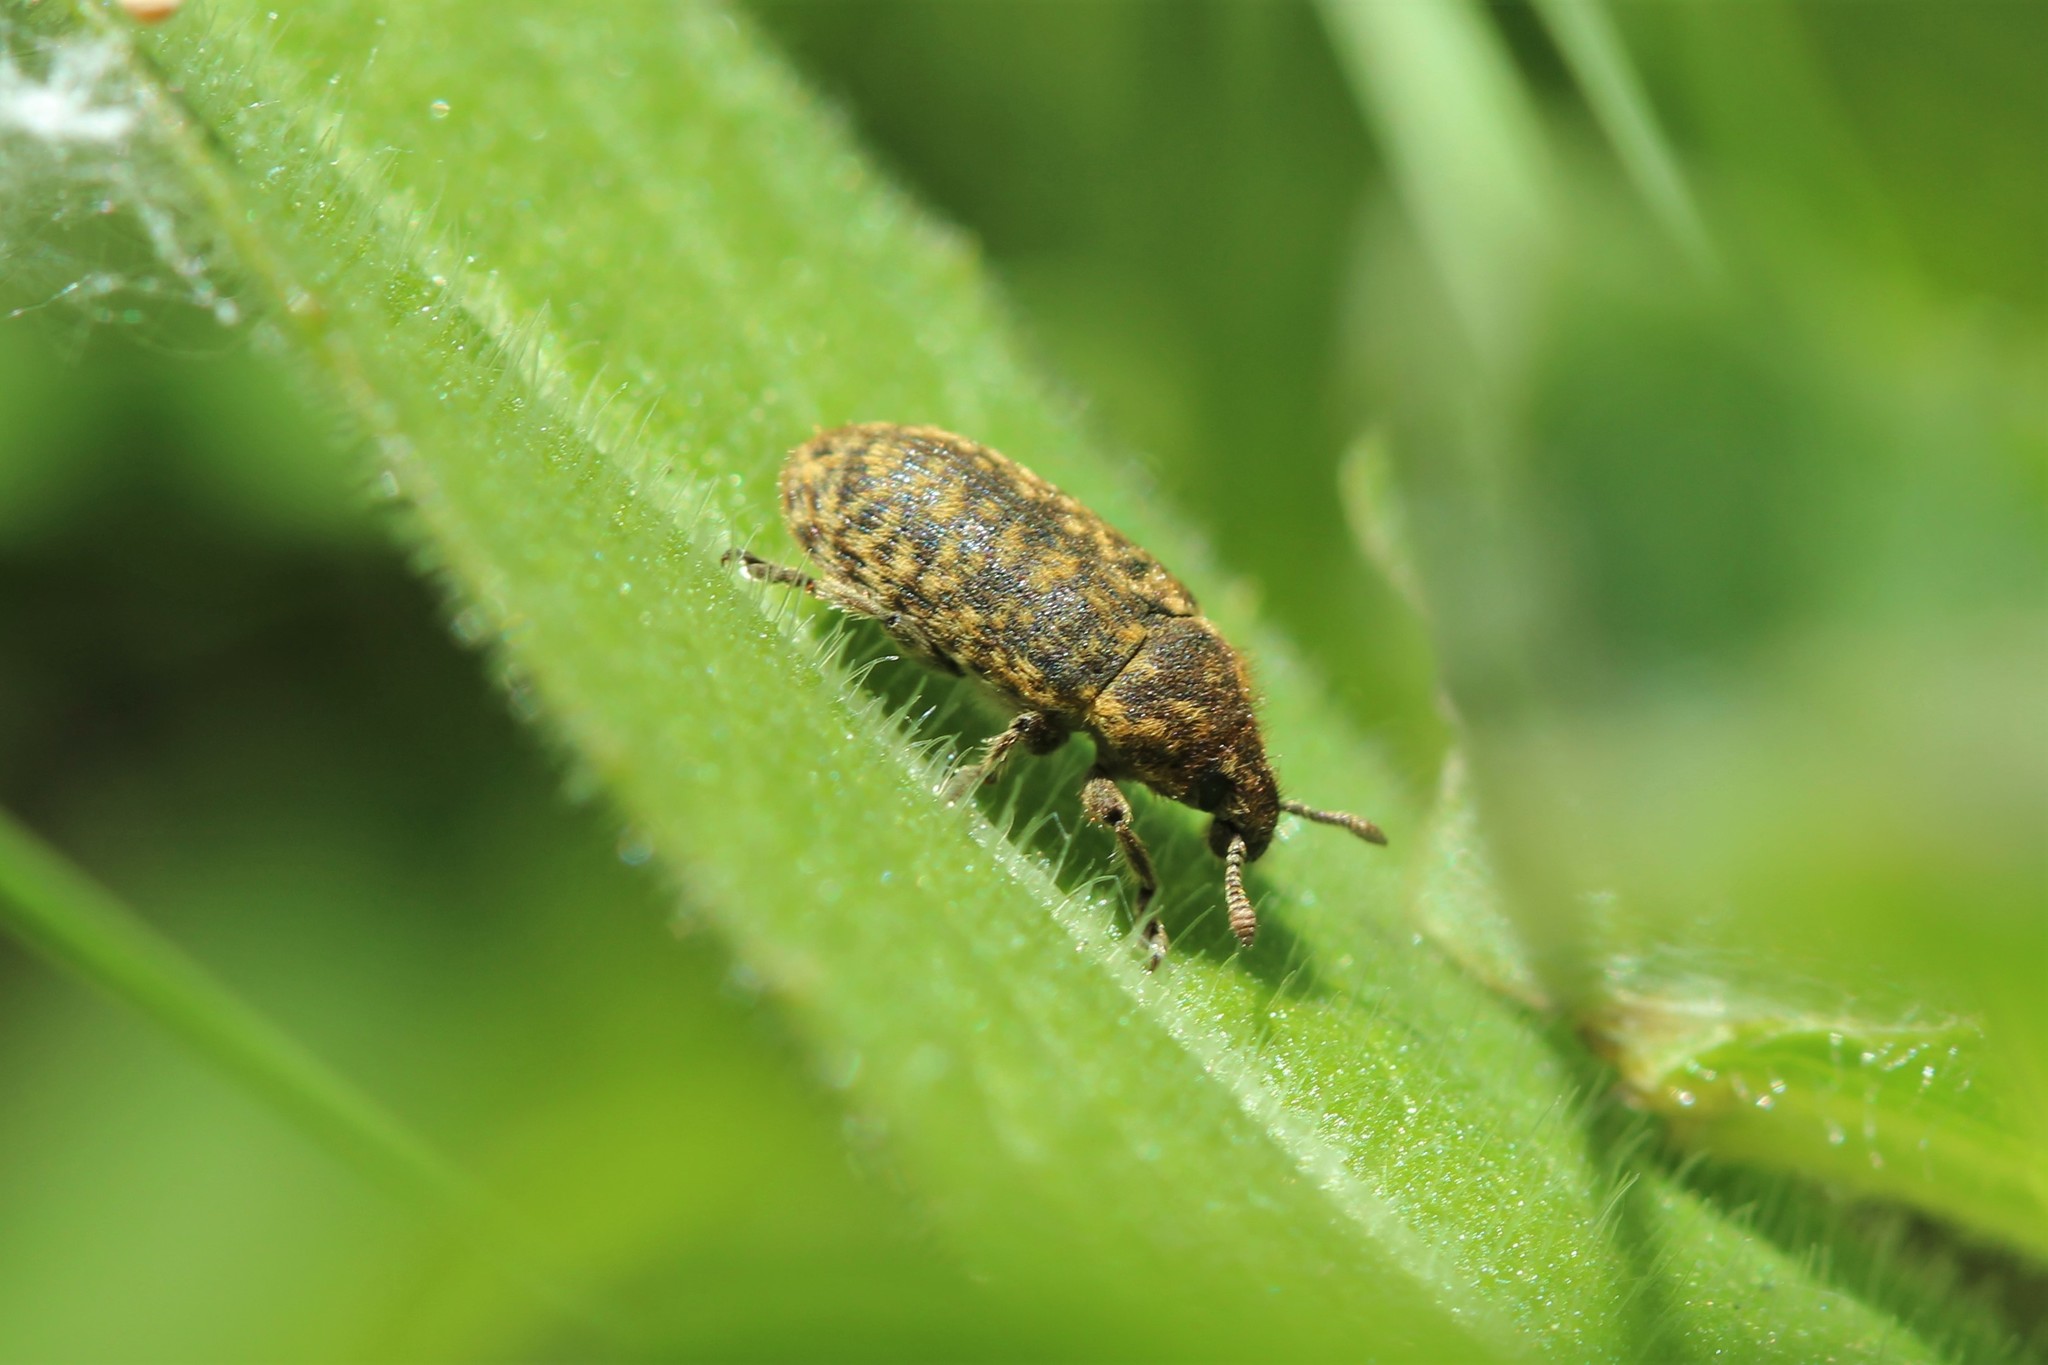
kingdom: Animalia
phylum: Arthropoda
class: Insecta
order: Coleoptera
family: Curculionidae
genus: Rhinocyllus
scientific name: Rhinocyllus conicus
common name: Weevil
